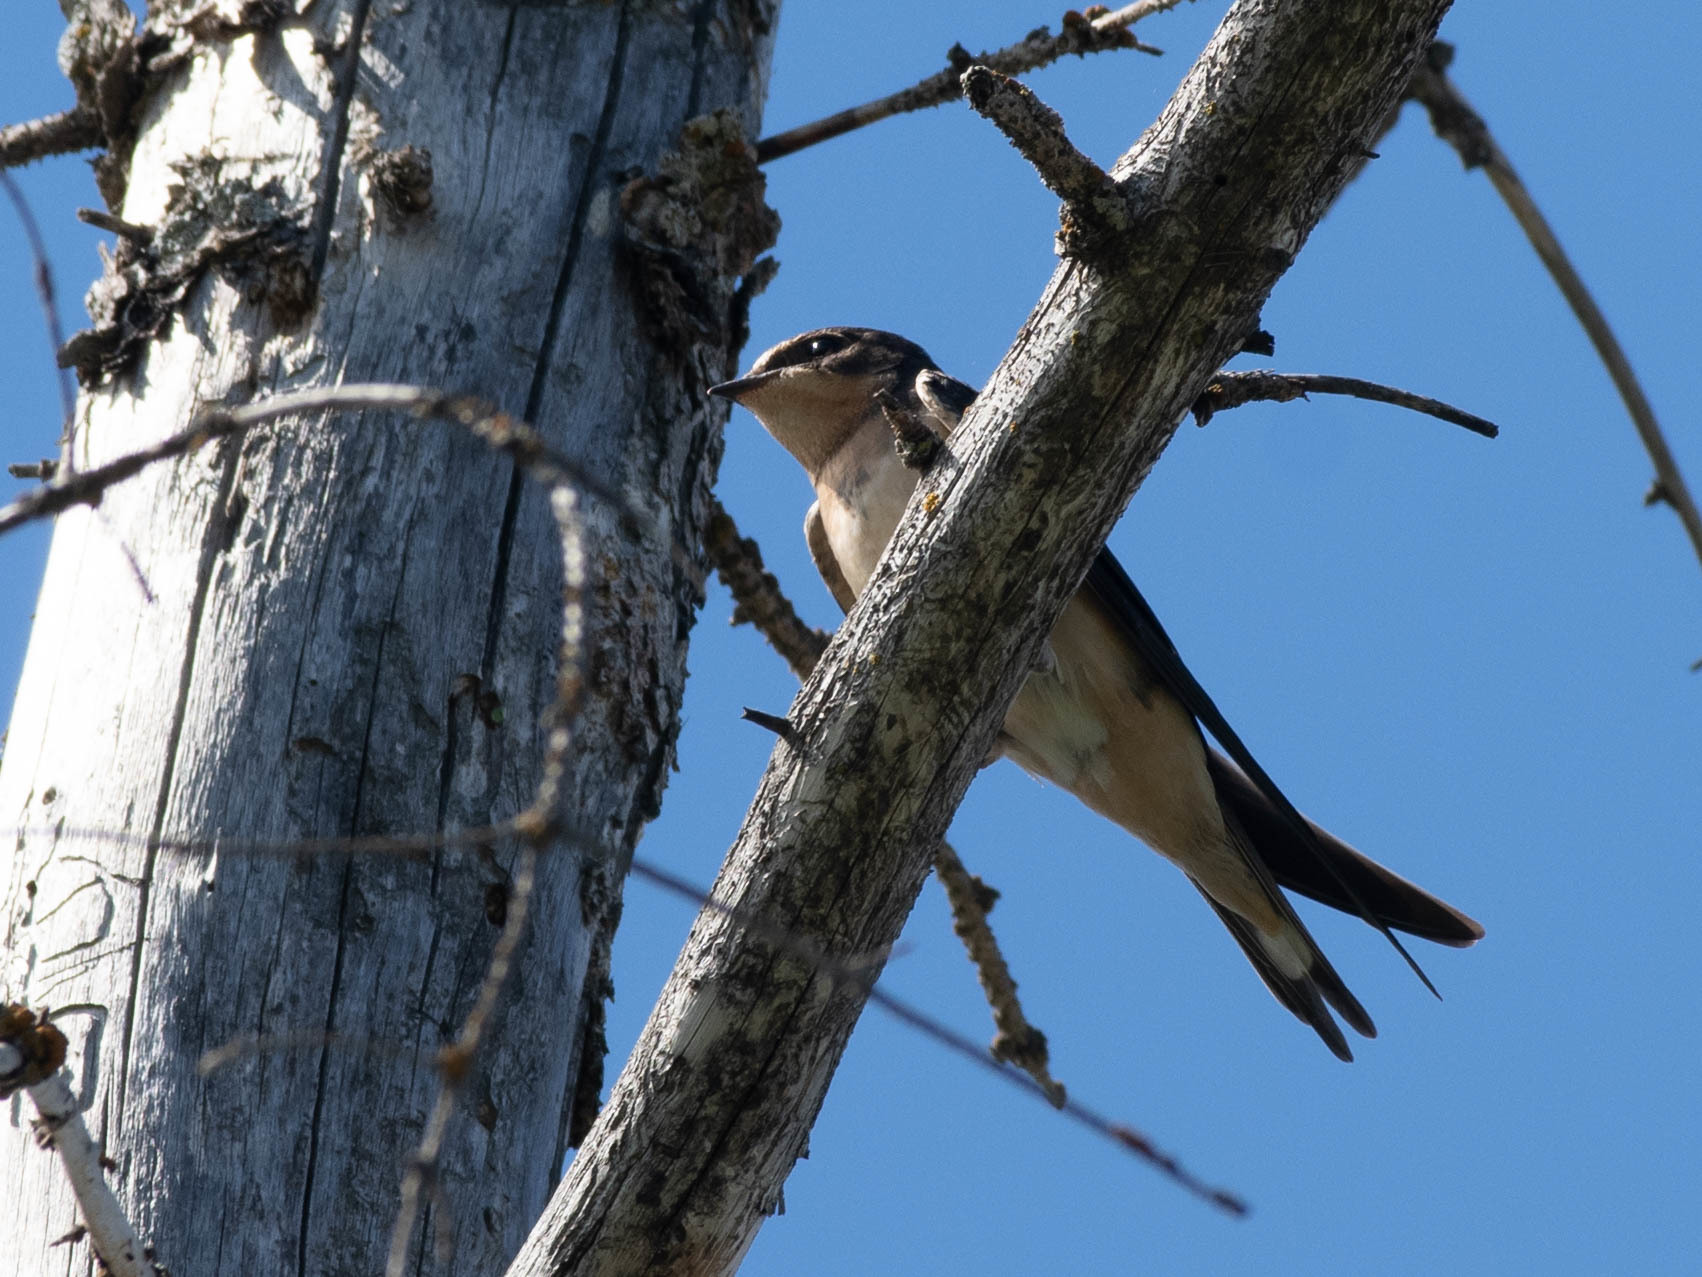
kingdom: Animalia
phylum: Chordata
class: Aves
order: Passeriformes
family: Hirundinidae
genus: Hirundo
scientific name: Hirundo rustica
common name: Barn swallow
